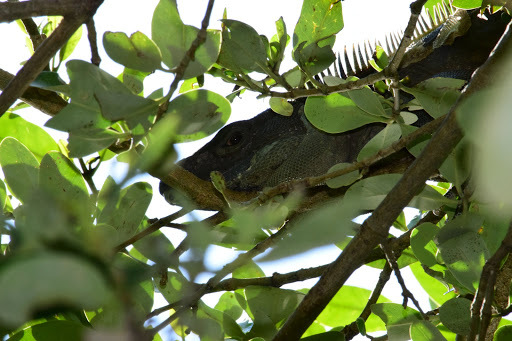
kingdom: Animalia
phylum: Chordata
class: Squamata
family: Iguanidae
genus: Ctenosaura
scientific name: Ctenosaura similis
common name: Black spiny-tailed iguana
